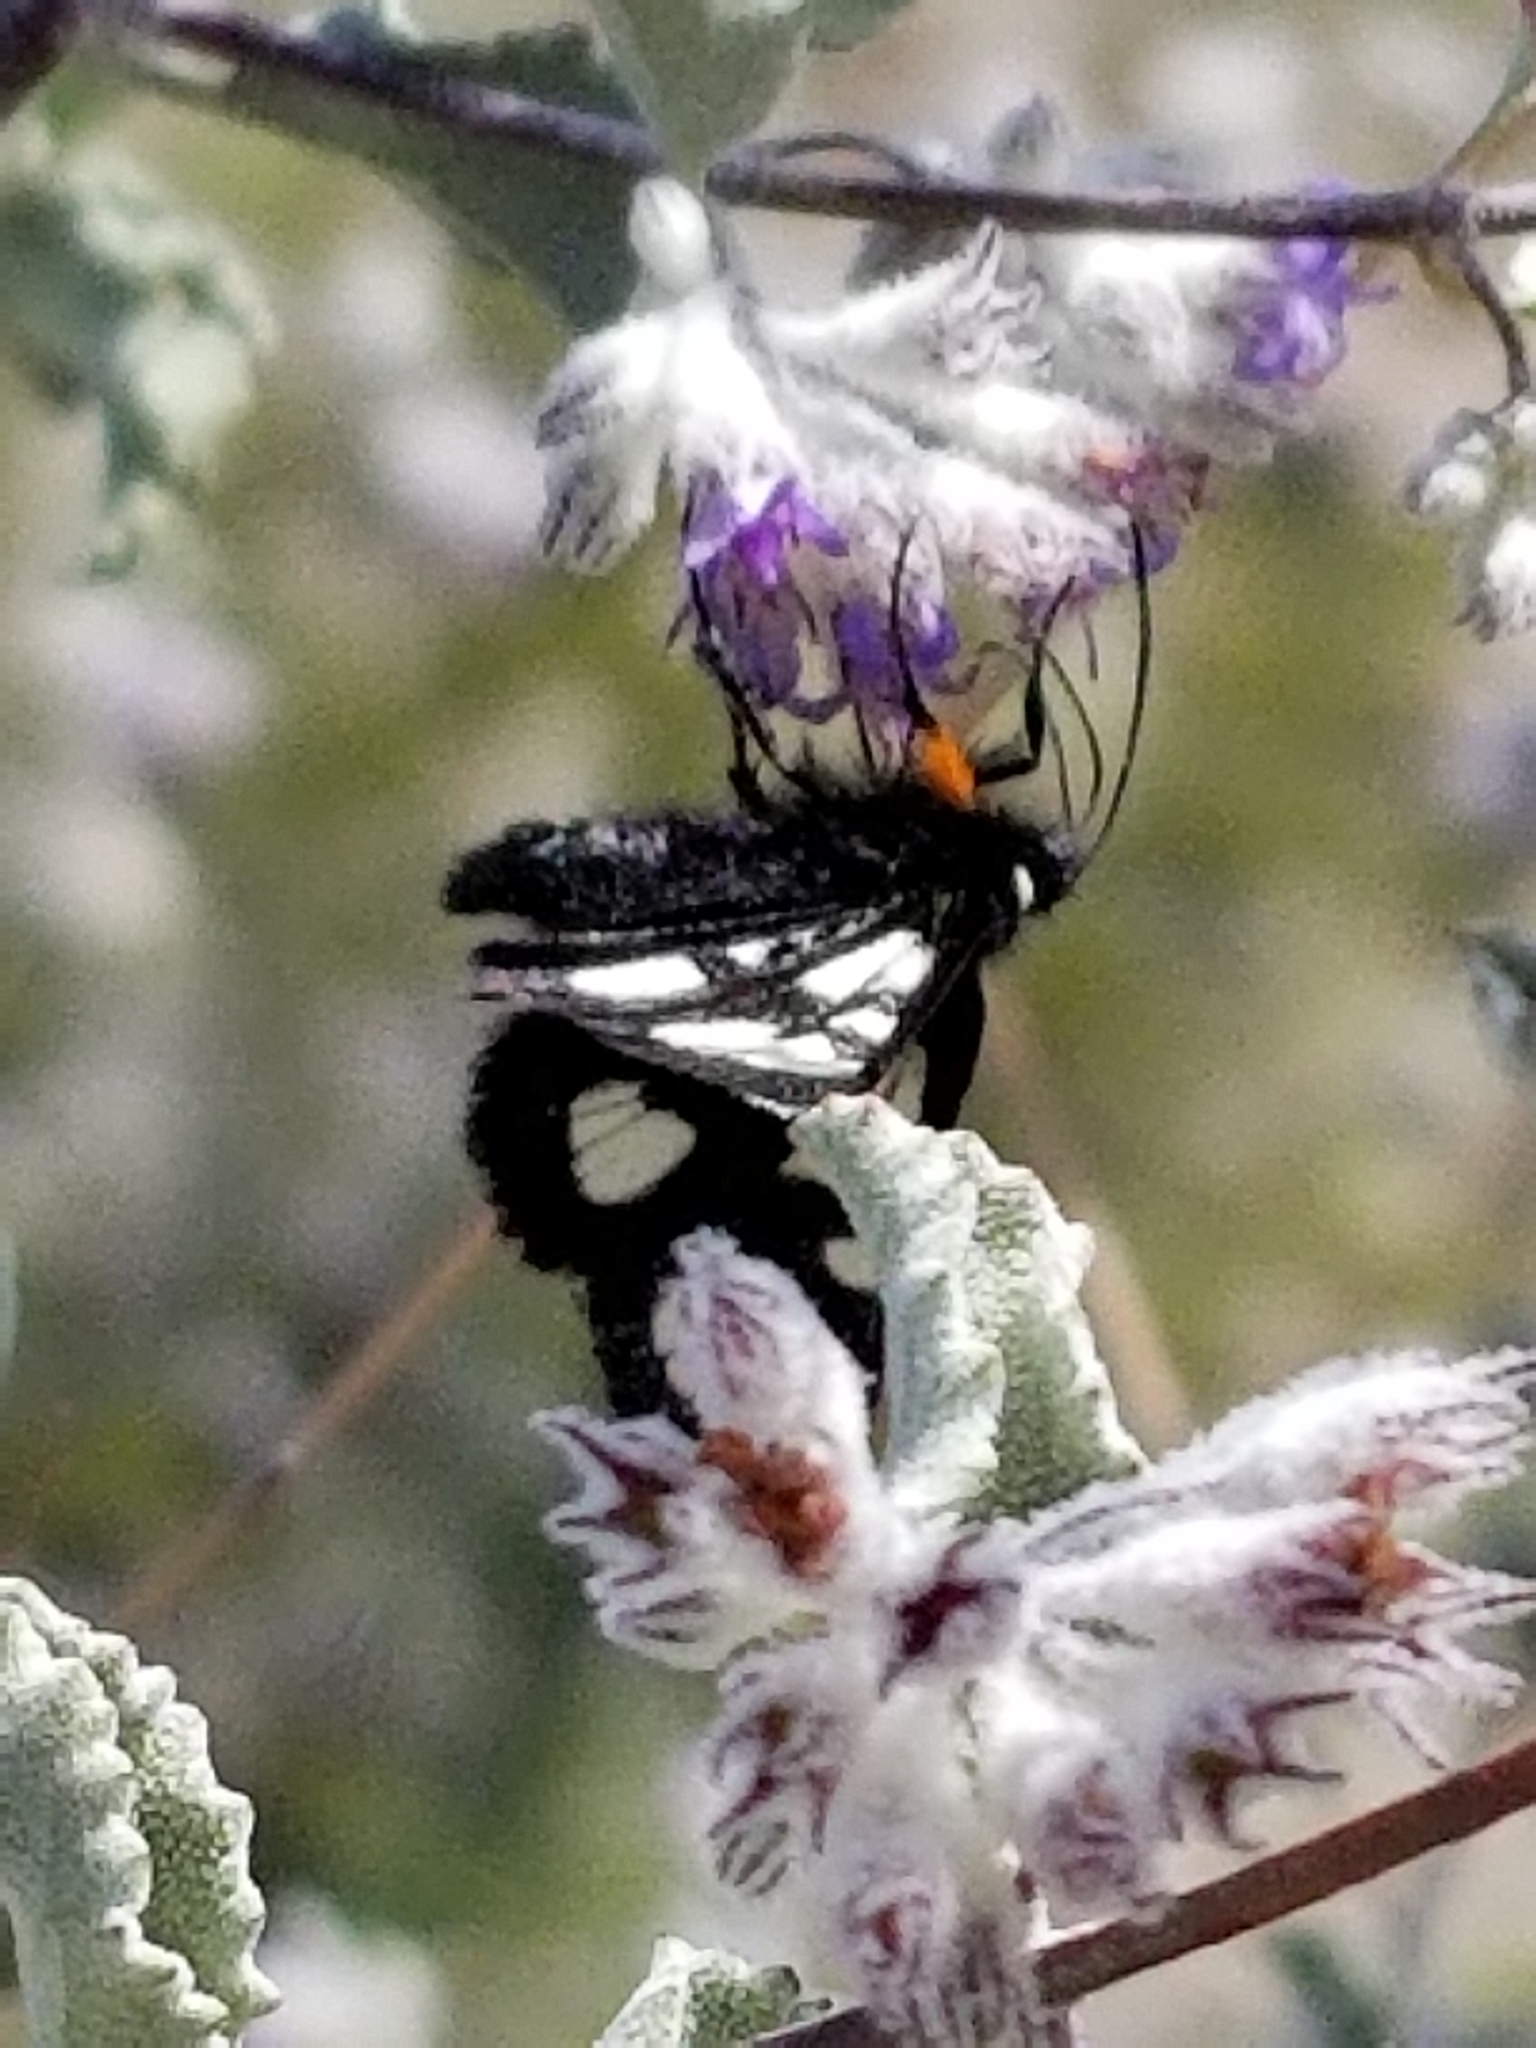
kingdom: Animalia
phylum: Arthropoda
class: Insecta
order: Lepidoptera
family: Noctuidae
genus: Alypia
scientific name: Alypia ridingsii
